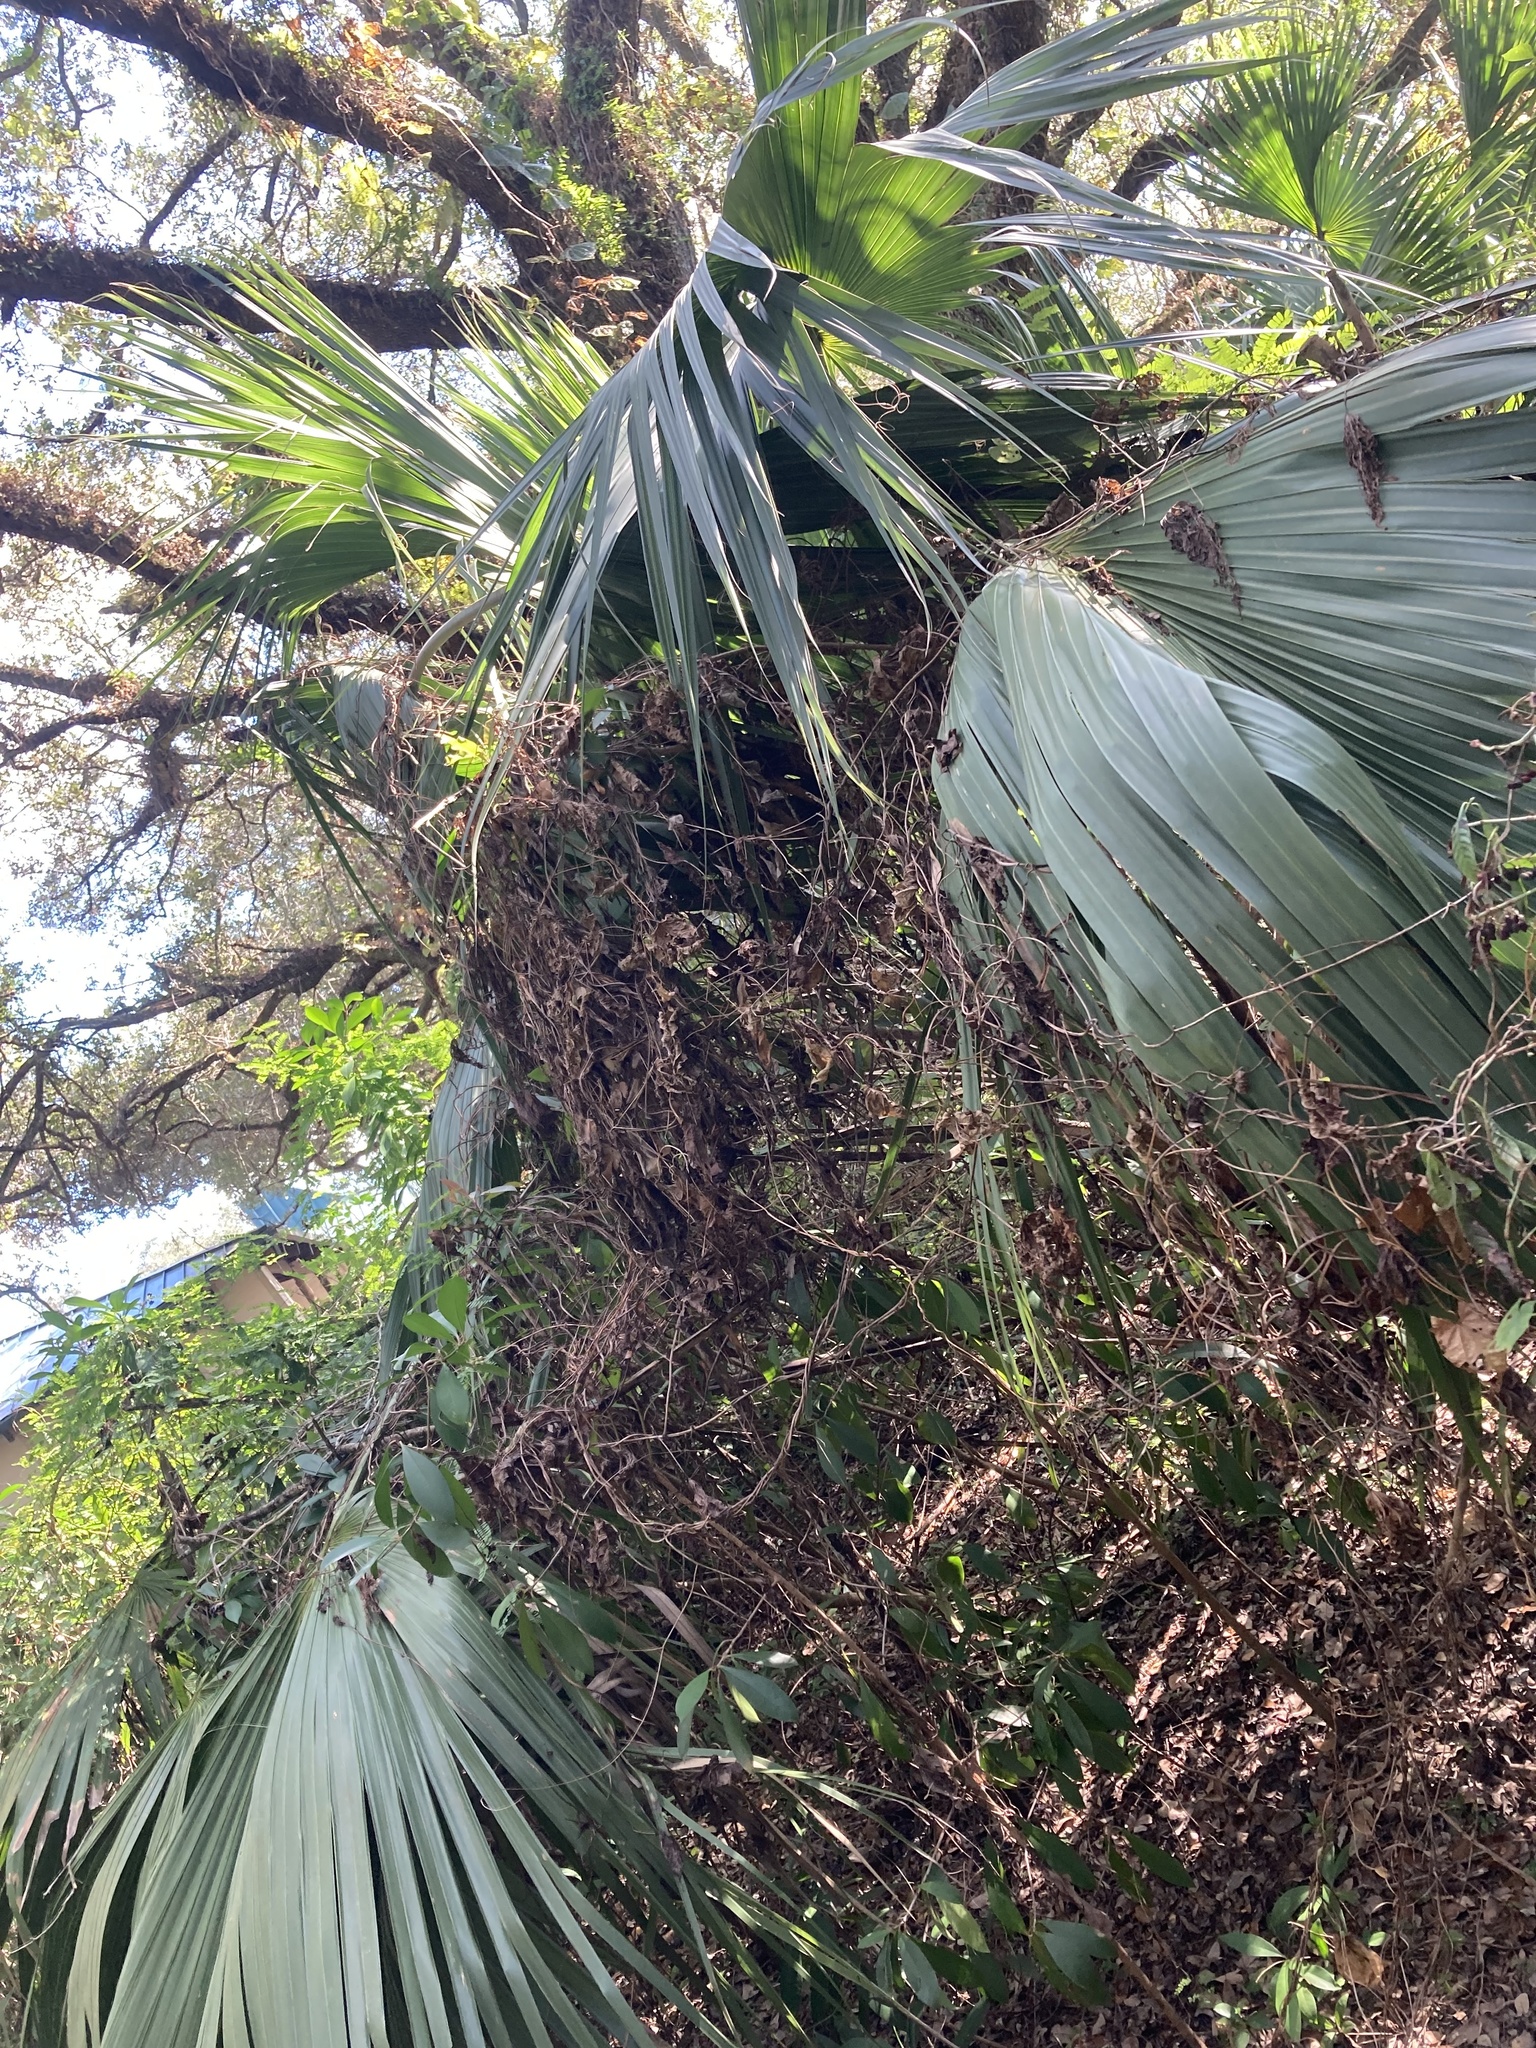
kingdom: Plantae
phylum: Tracheophyta
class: Liliopsida
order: Arecales
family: Arecaceae
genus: Sabal
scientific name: Sabal palmetto
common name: Blue palmetto
